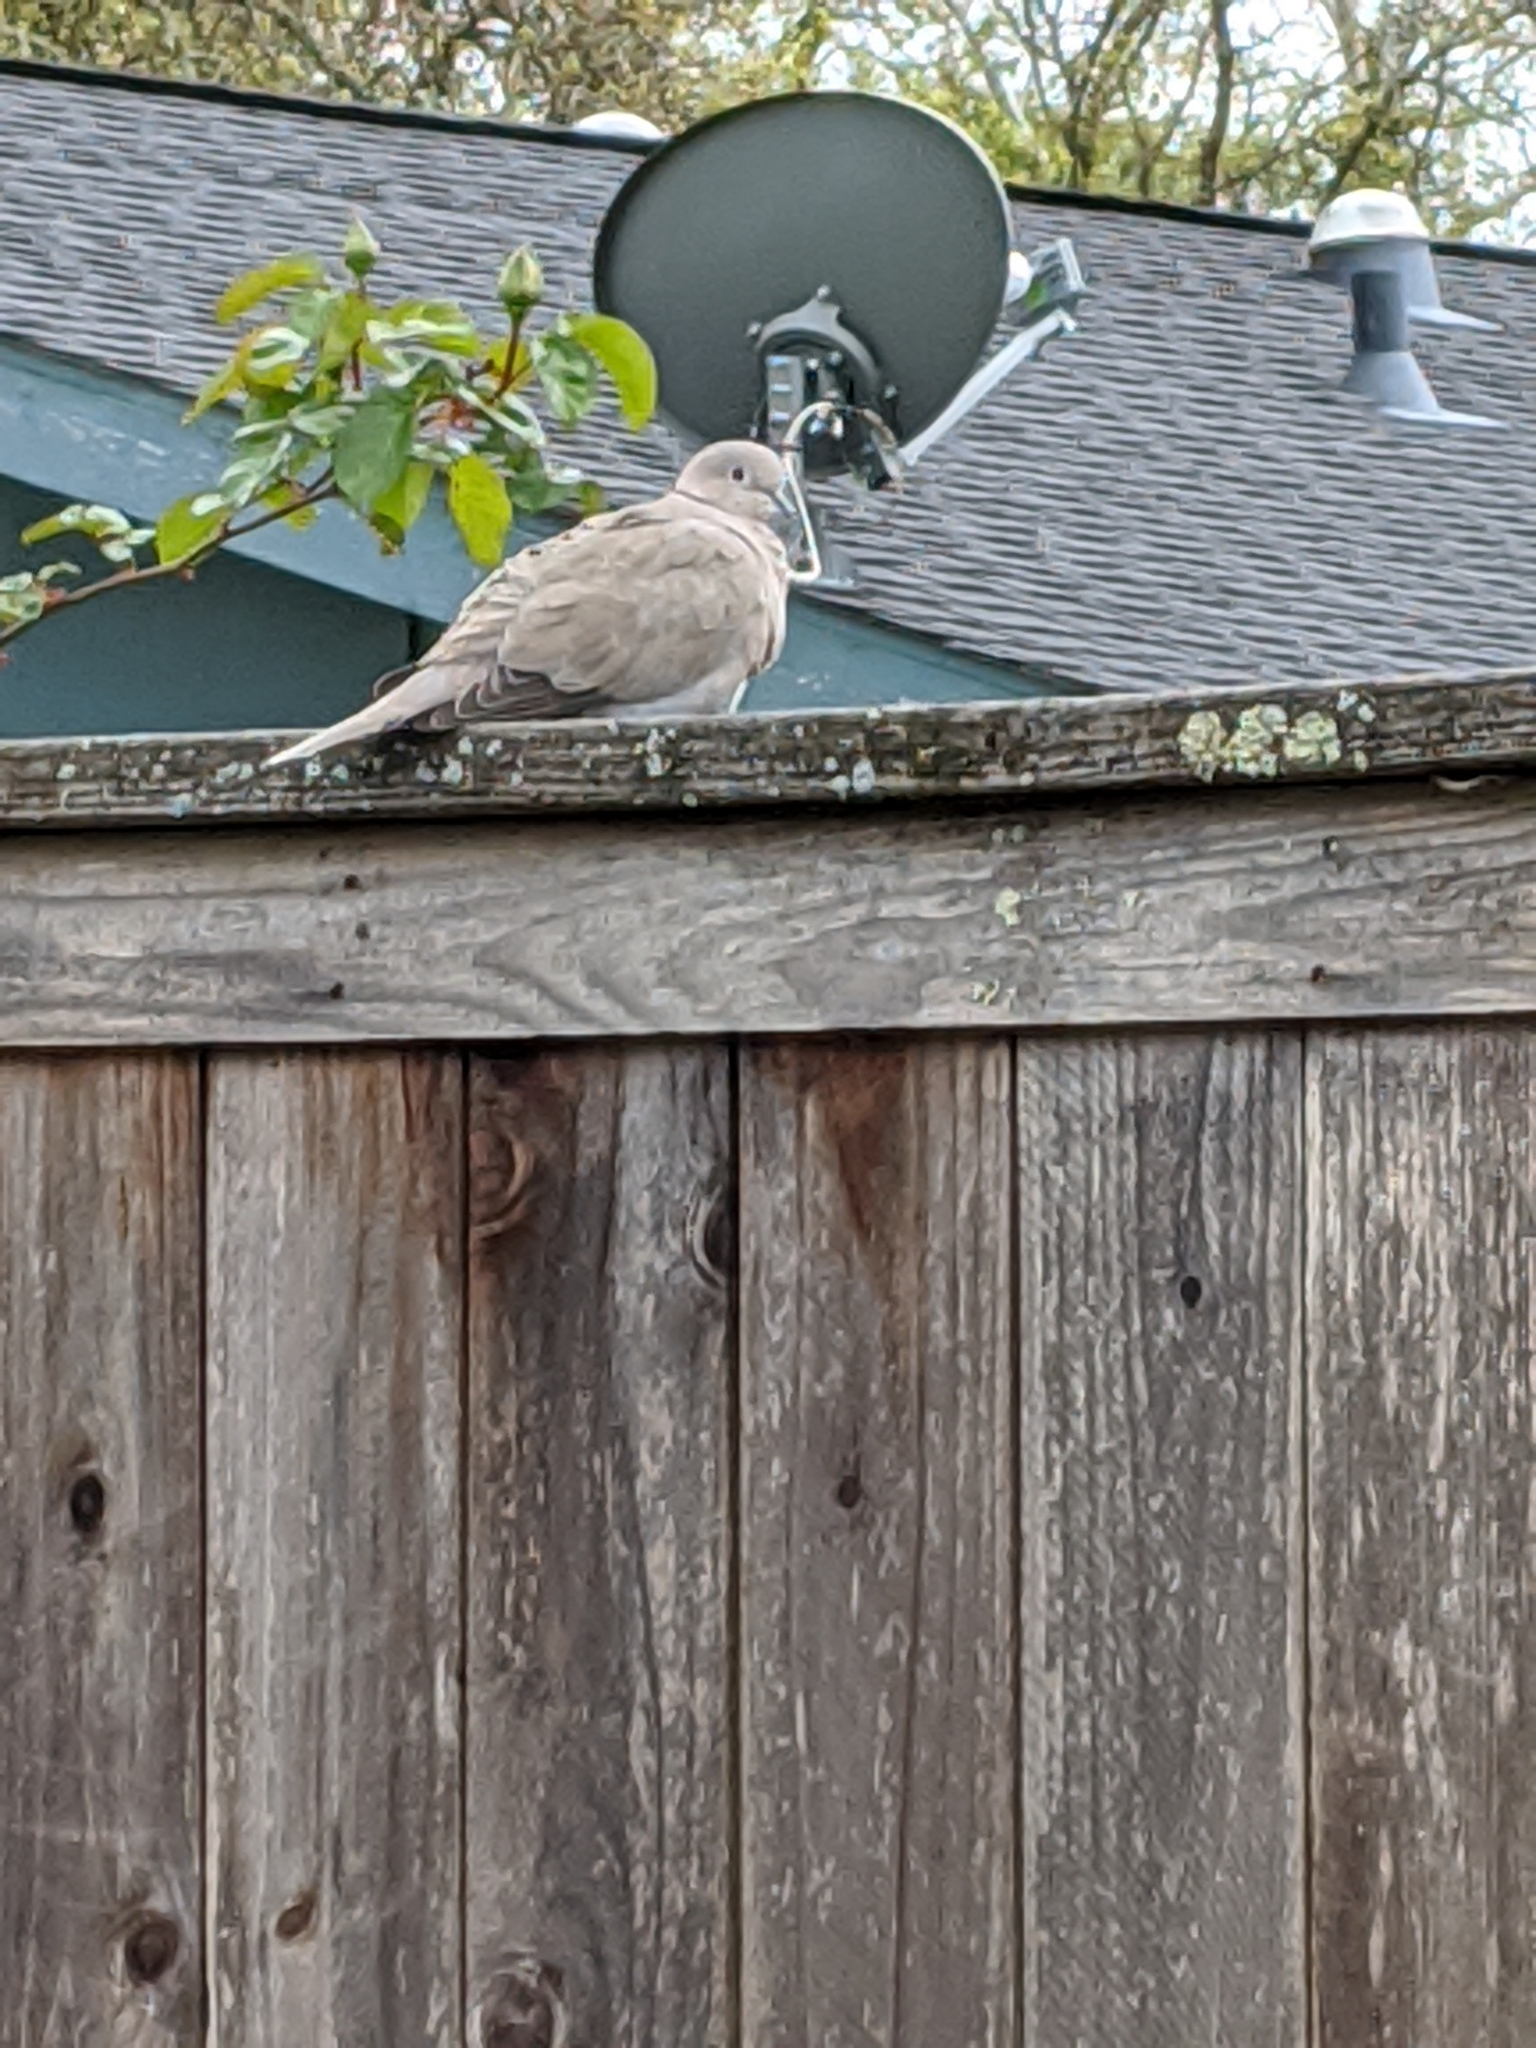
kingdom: Animalia
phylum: Chordata
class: Aves
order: Columbiformes
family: Columbidae
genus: Streptopelia
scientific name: Streptopelia decaocto
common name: Eurasian collared dove
